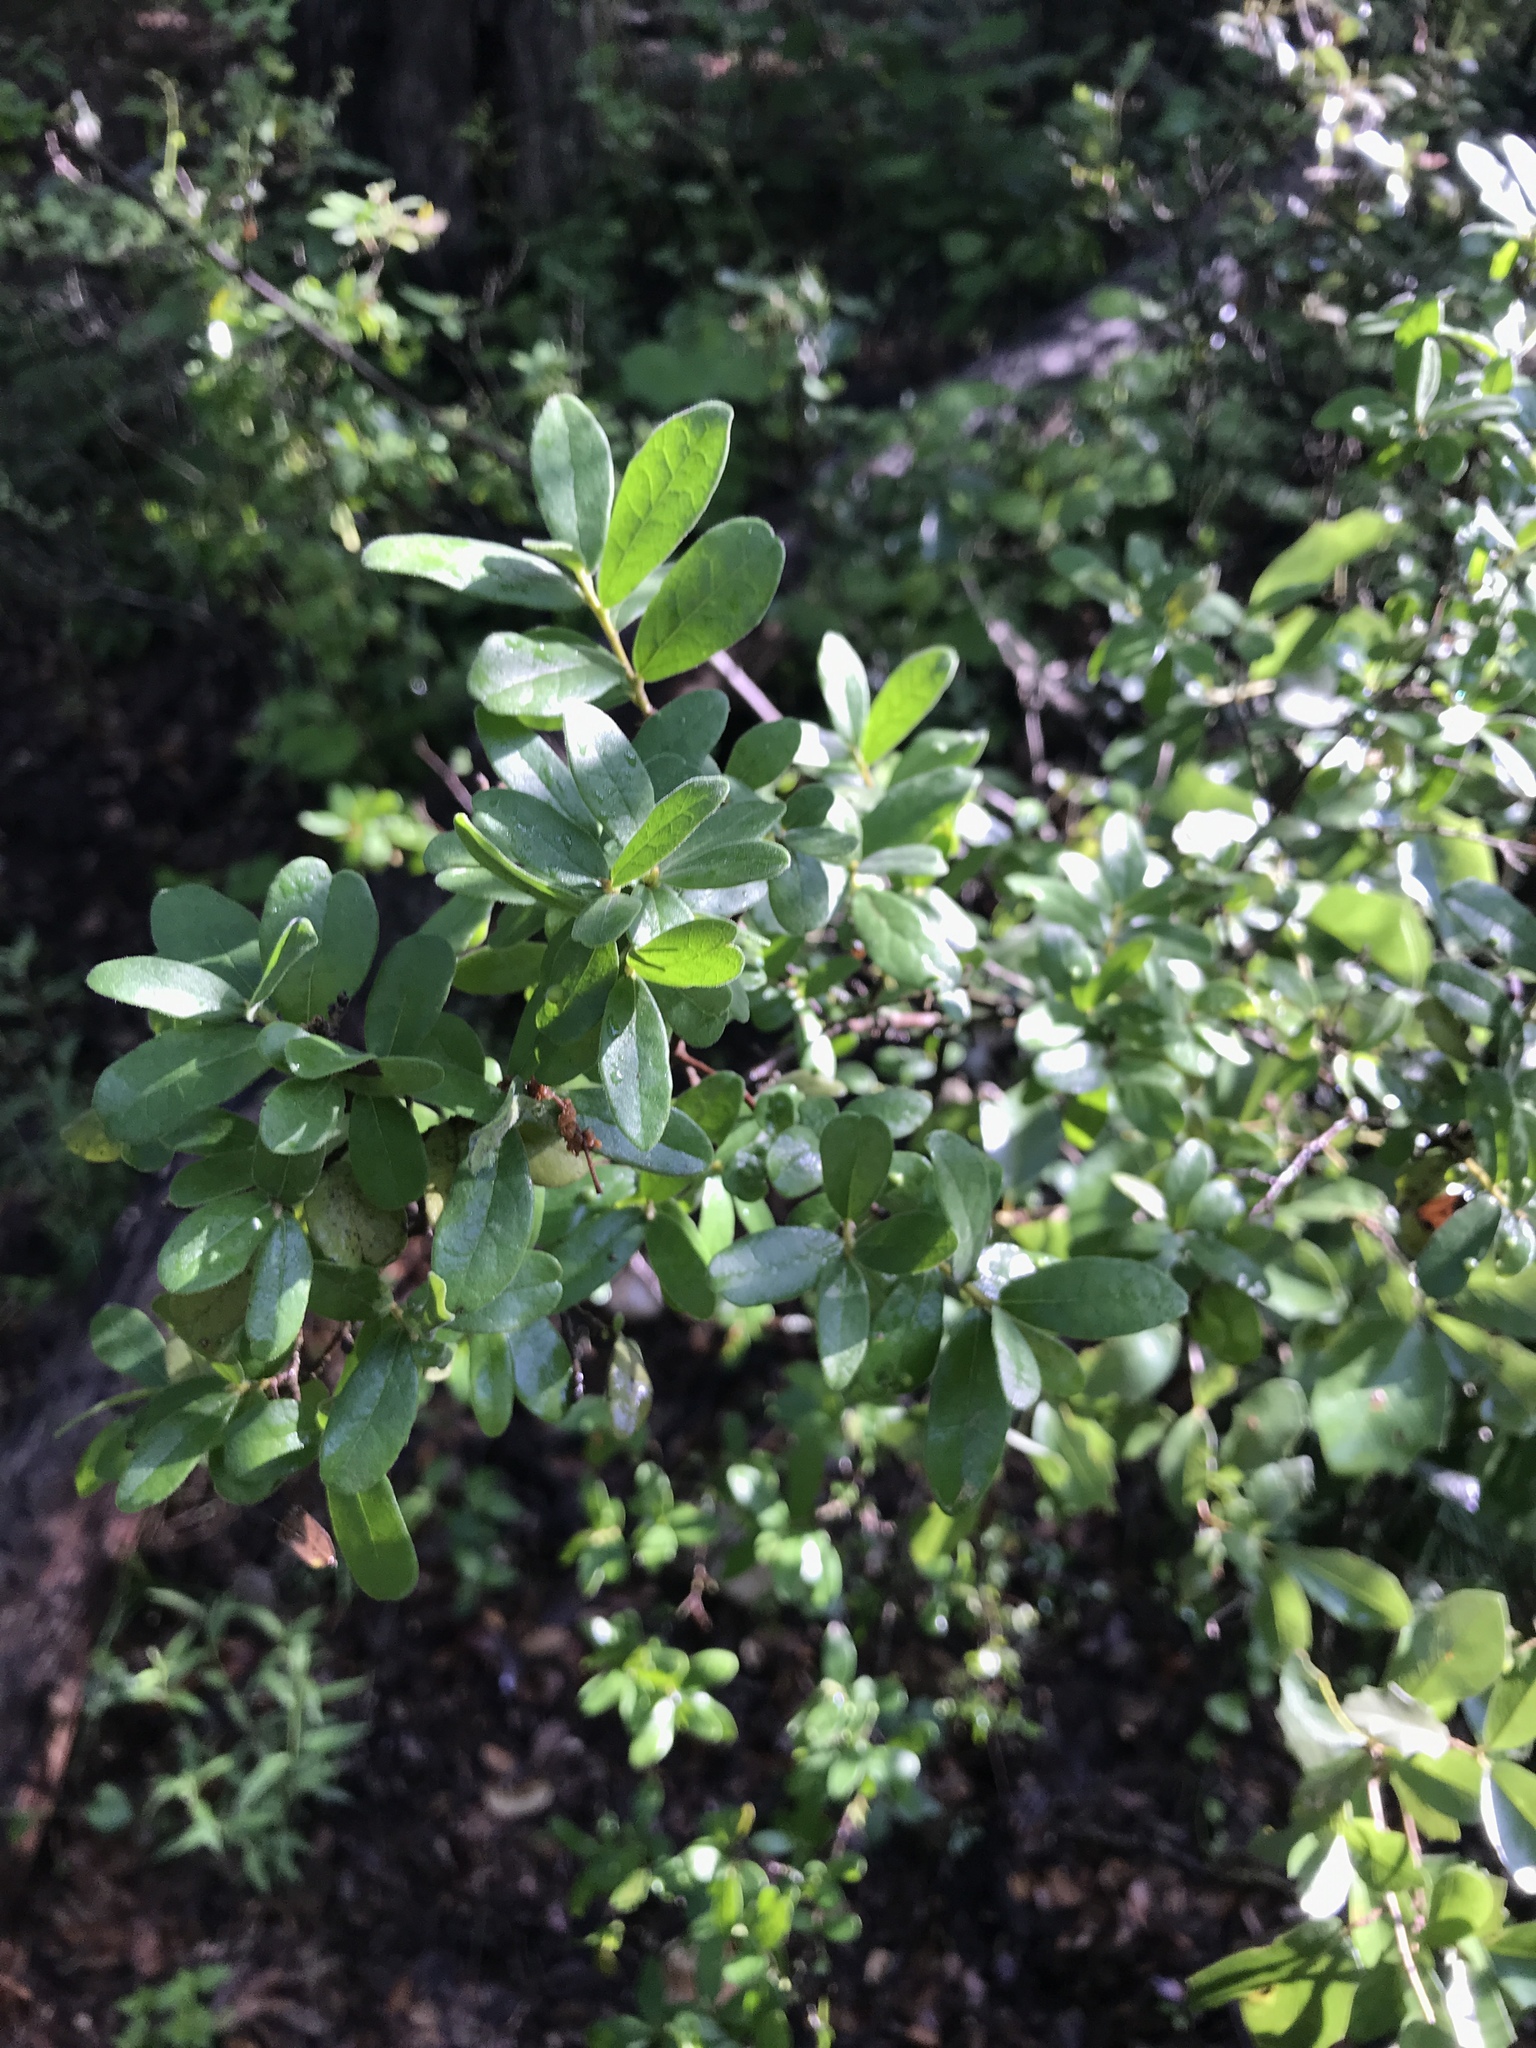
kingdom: Plantae
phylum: Tracheophyta
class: Magnoliopsida
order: Ericales
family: Ebenaceae
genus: Diospyros
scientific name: Diospyros texana
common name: Texas persimmon
